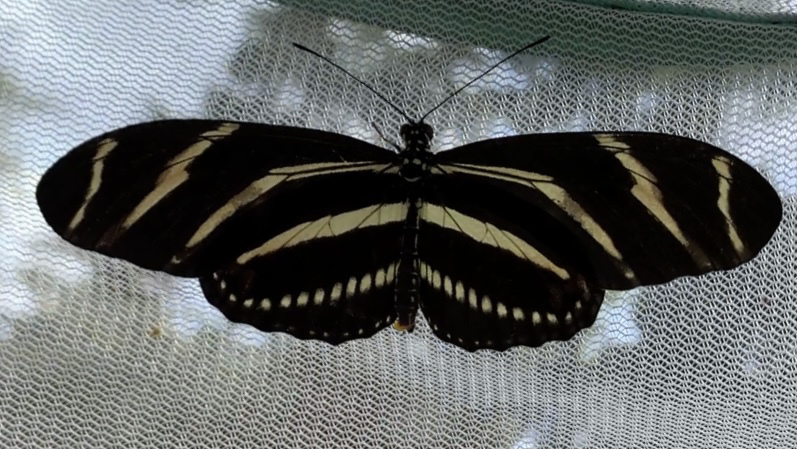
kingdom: Animalia
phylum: Arthropoda
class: Insecta
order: Lepidoptera
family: Nymphalidae
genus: Heliconius
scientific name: Heliconius charithonia
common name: Zebra long wing
